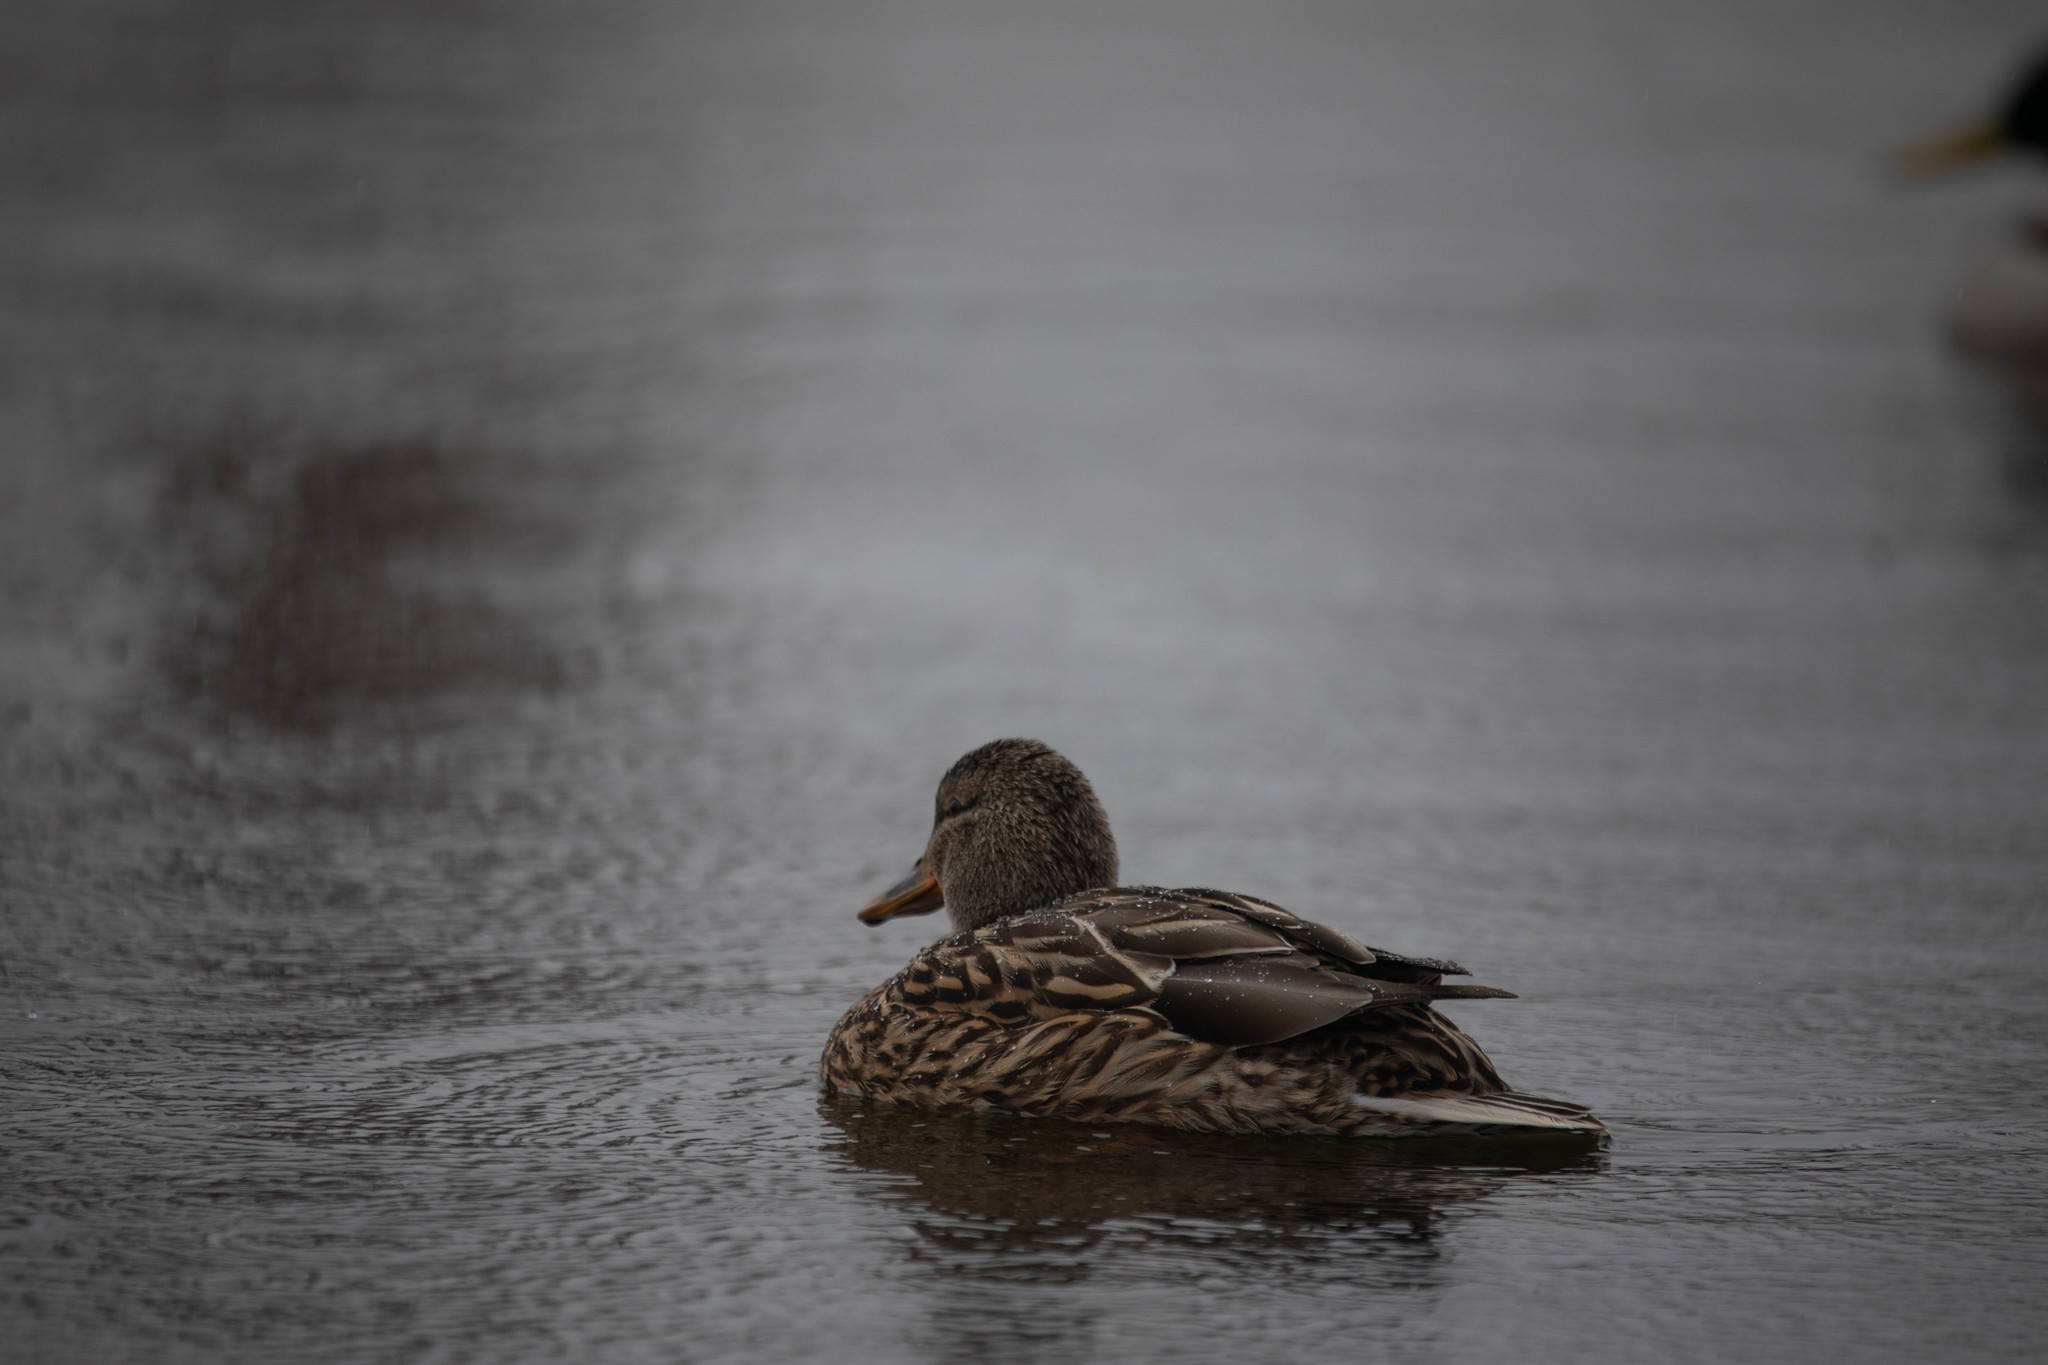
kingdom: Animalia
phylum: Chordata
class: Aves
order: Anseriformes
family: Anatidae
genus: Anas
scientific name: Anas platyrhynchos
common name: Mallard
